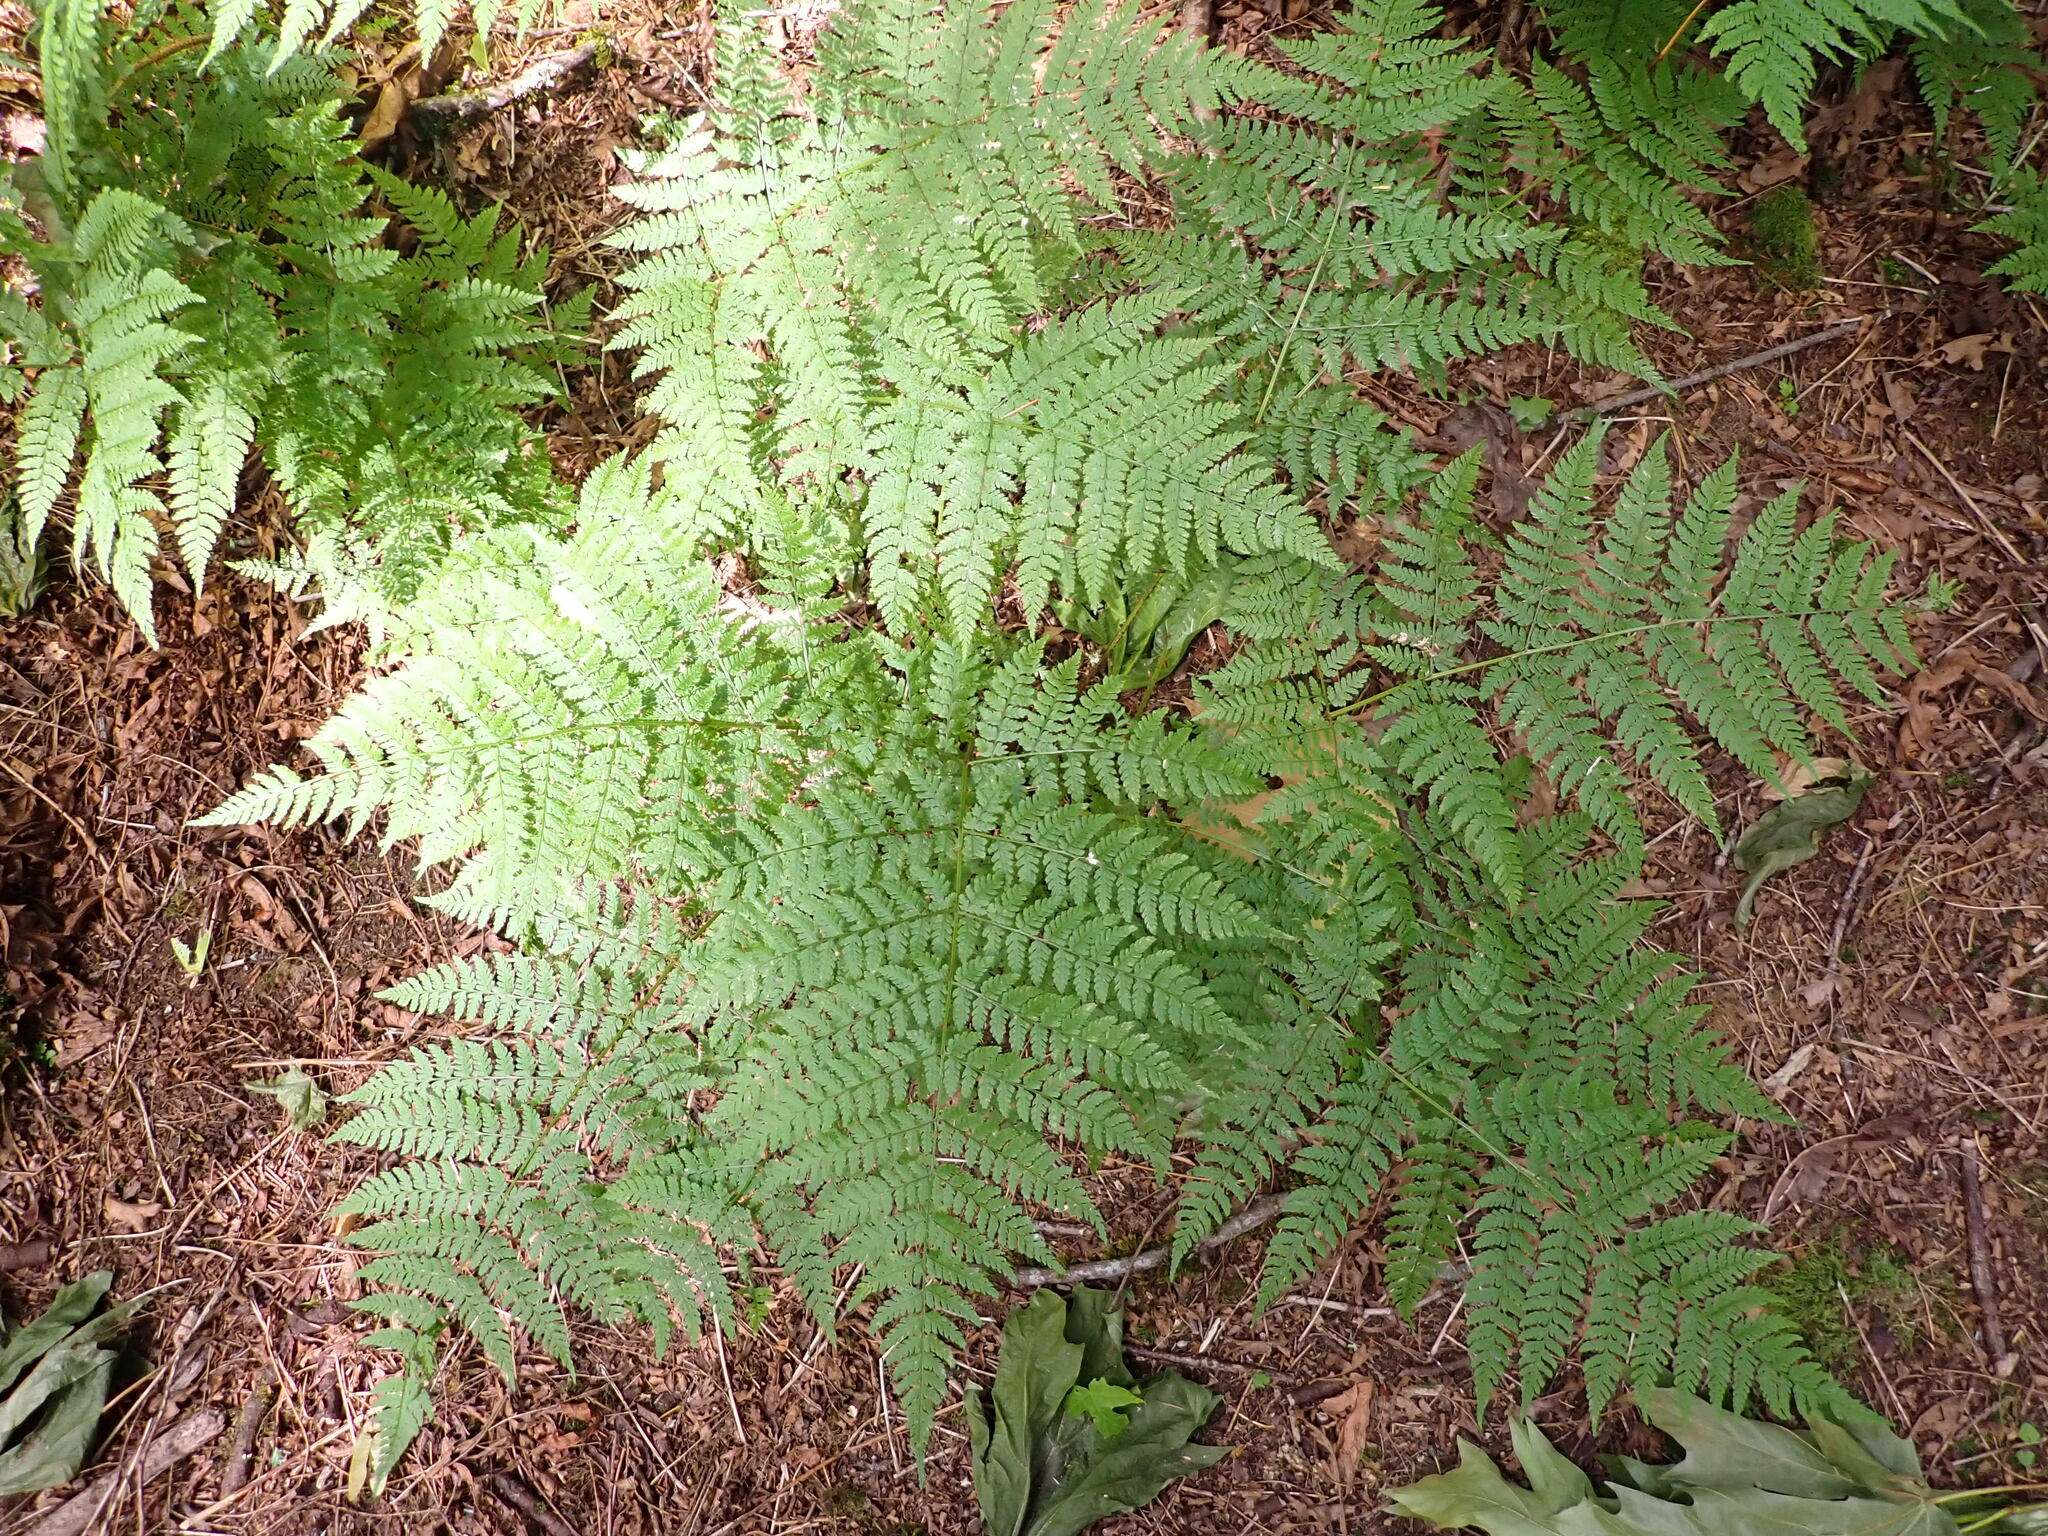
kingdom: Plantae
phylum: Tracheophyta
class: Polypodiopsida
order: Polypodiales
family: Dryopteridaceae
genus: Dryopteris
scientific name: Dryopteris expansa
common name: Northern buckler fern
